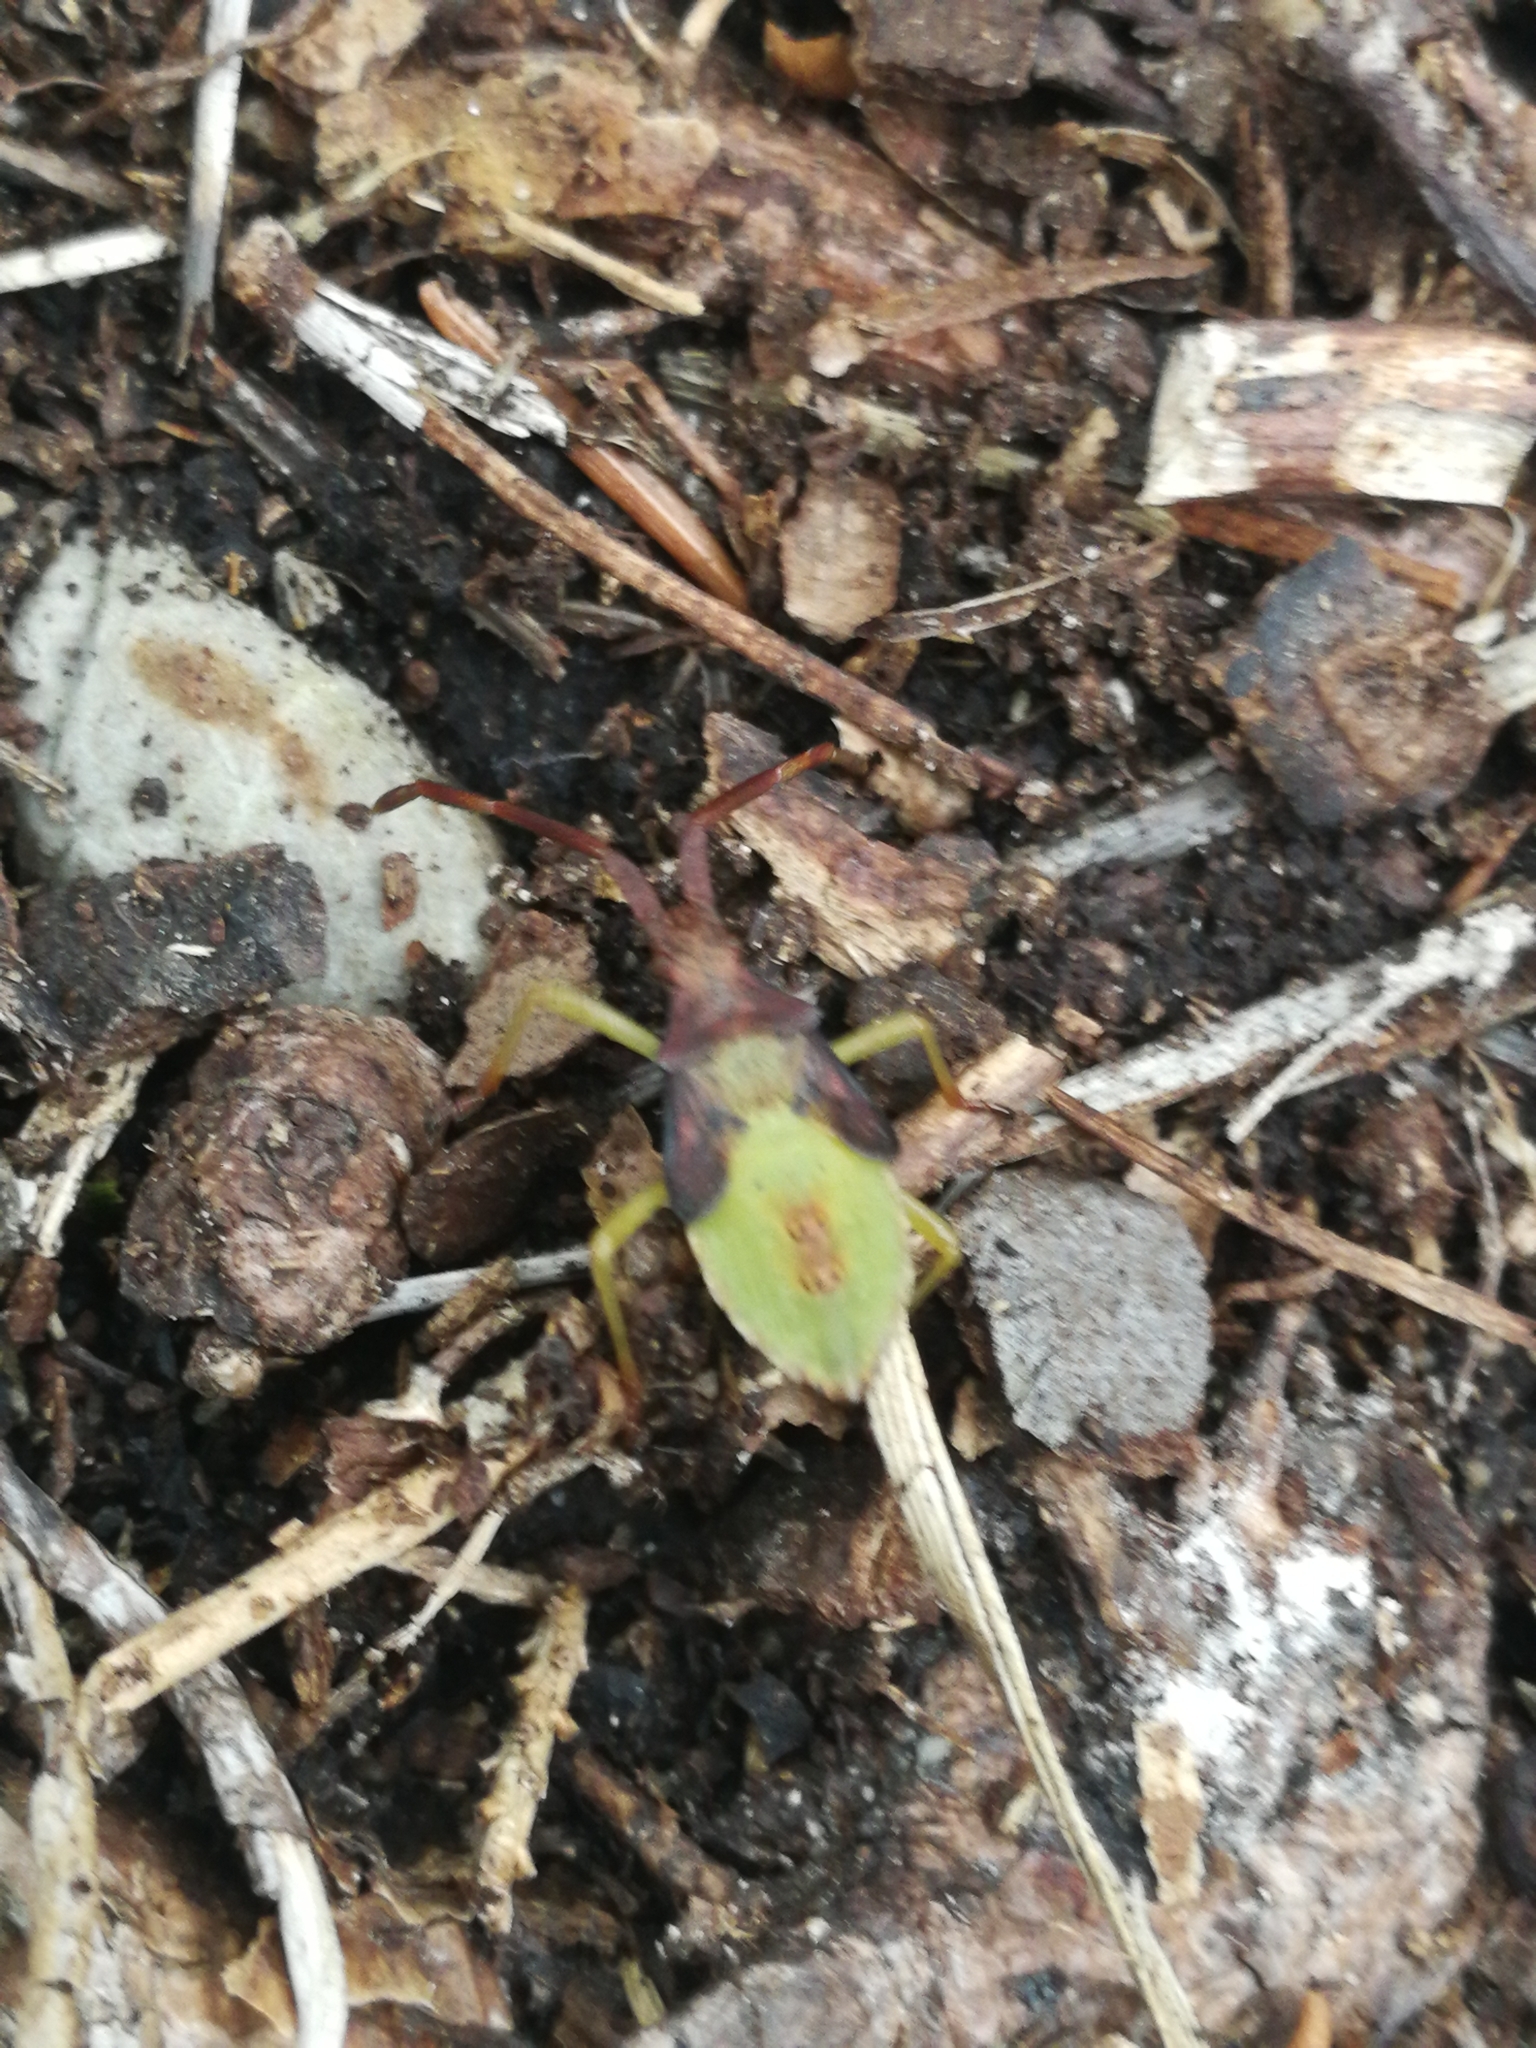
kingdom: Animalia
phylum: Arthropoda
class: Insecta
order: Hemiptera
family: Coreidae
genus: Gonocerus
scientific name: Gonocerus acuteangulatus
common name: Box bug
